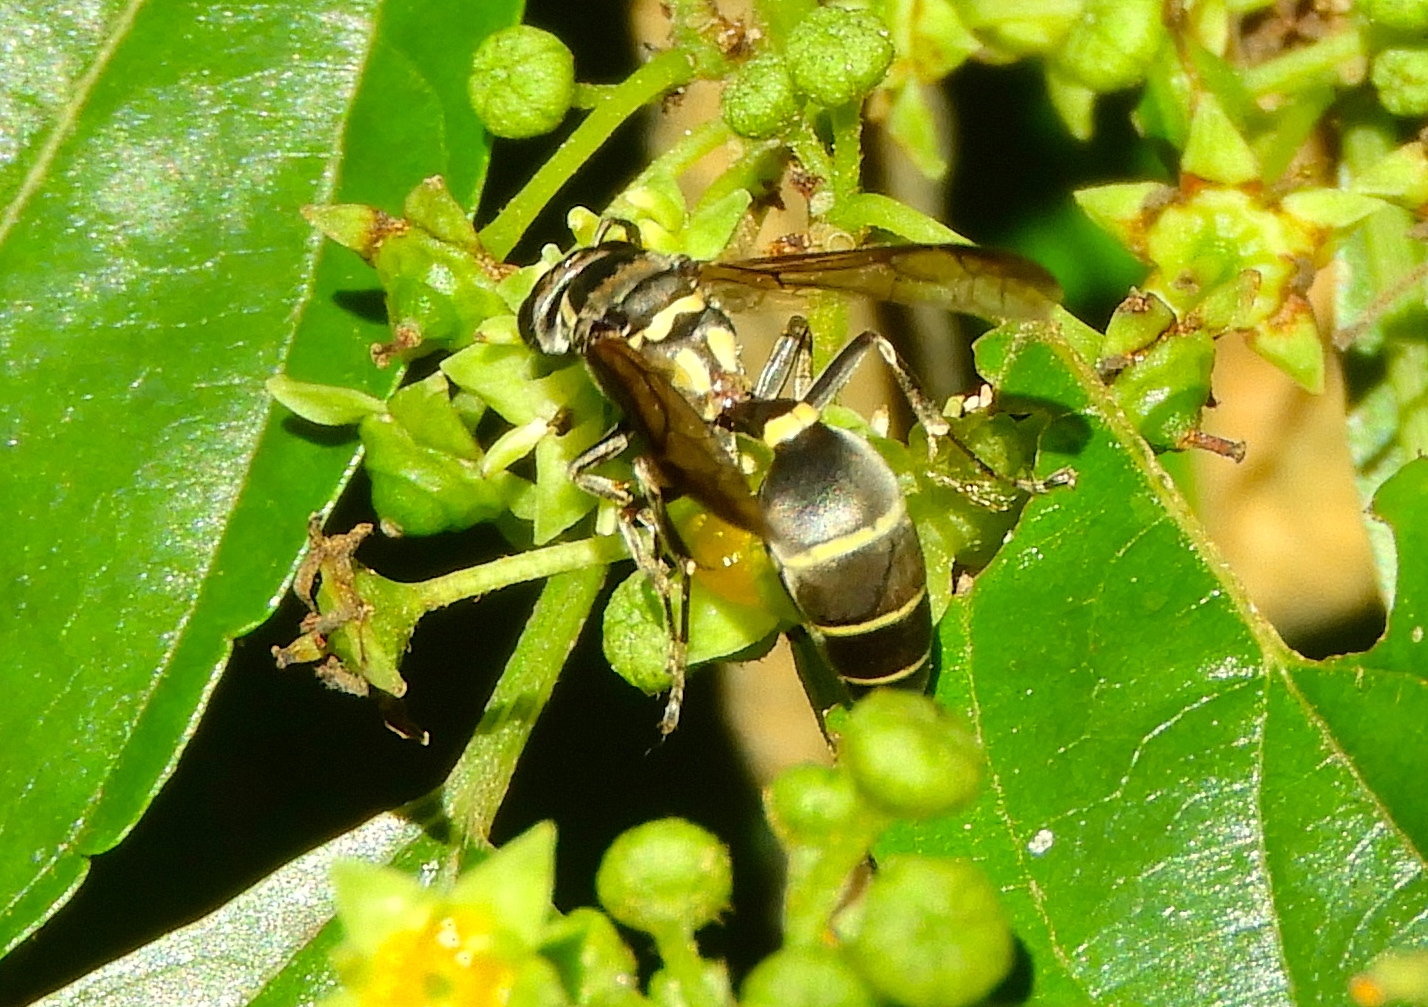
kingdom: Animalia
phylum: Arthropoda
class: Insecta
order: Hymenoptera
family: Vespidae
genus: Myrapetra
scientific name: Myrapetra
